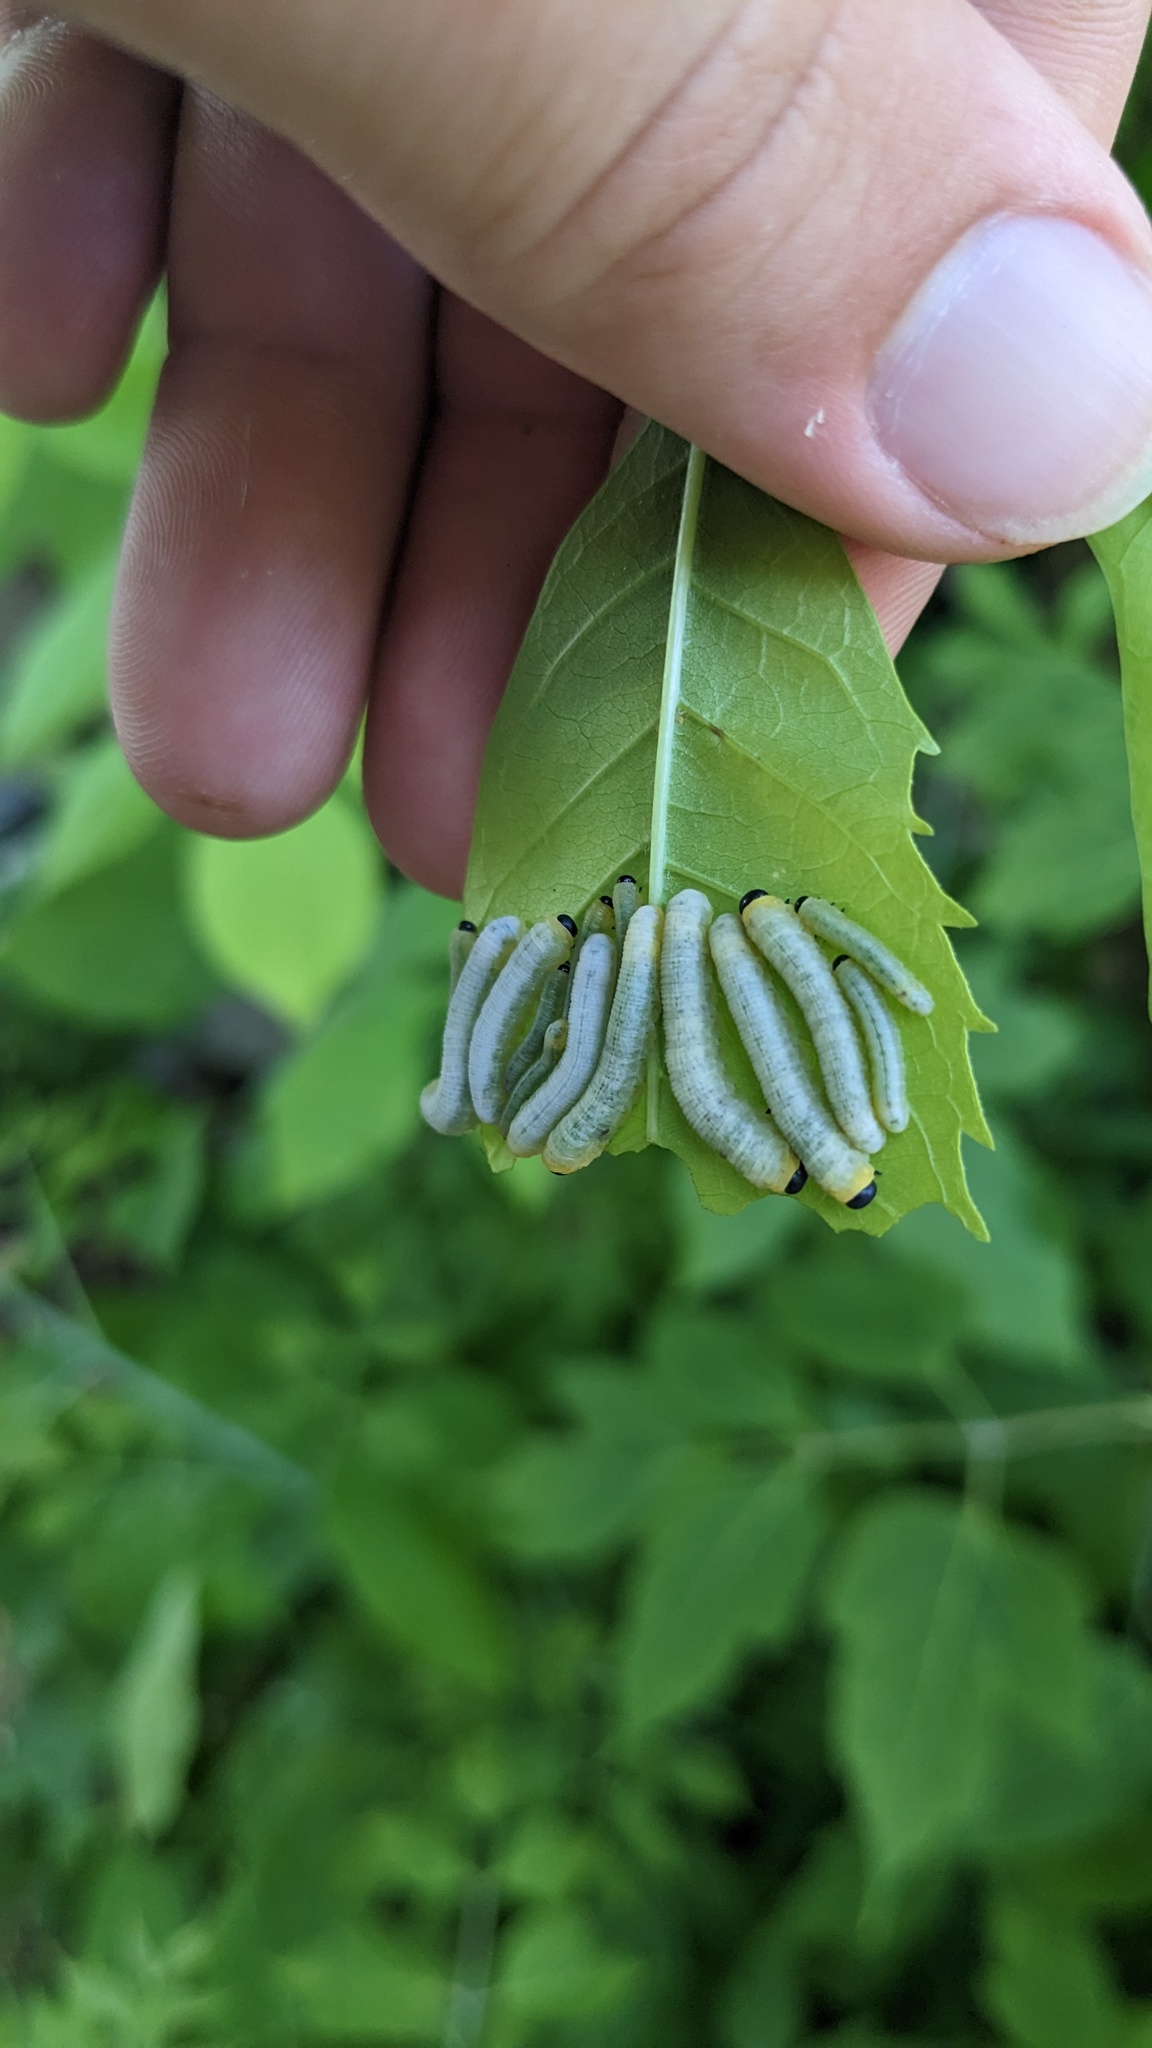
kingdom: Animalia
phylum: Arthropoda
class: Insecta
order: Hymenoptera
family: Tenthredinidae
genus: Tethida
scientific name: Tethida barda
